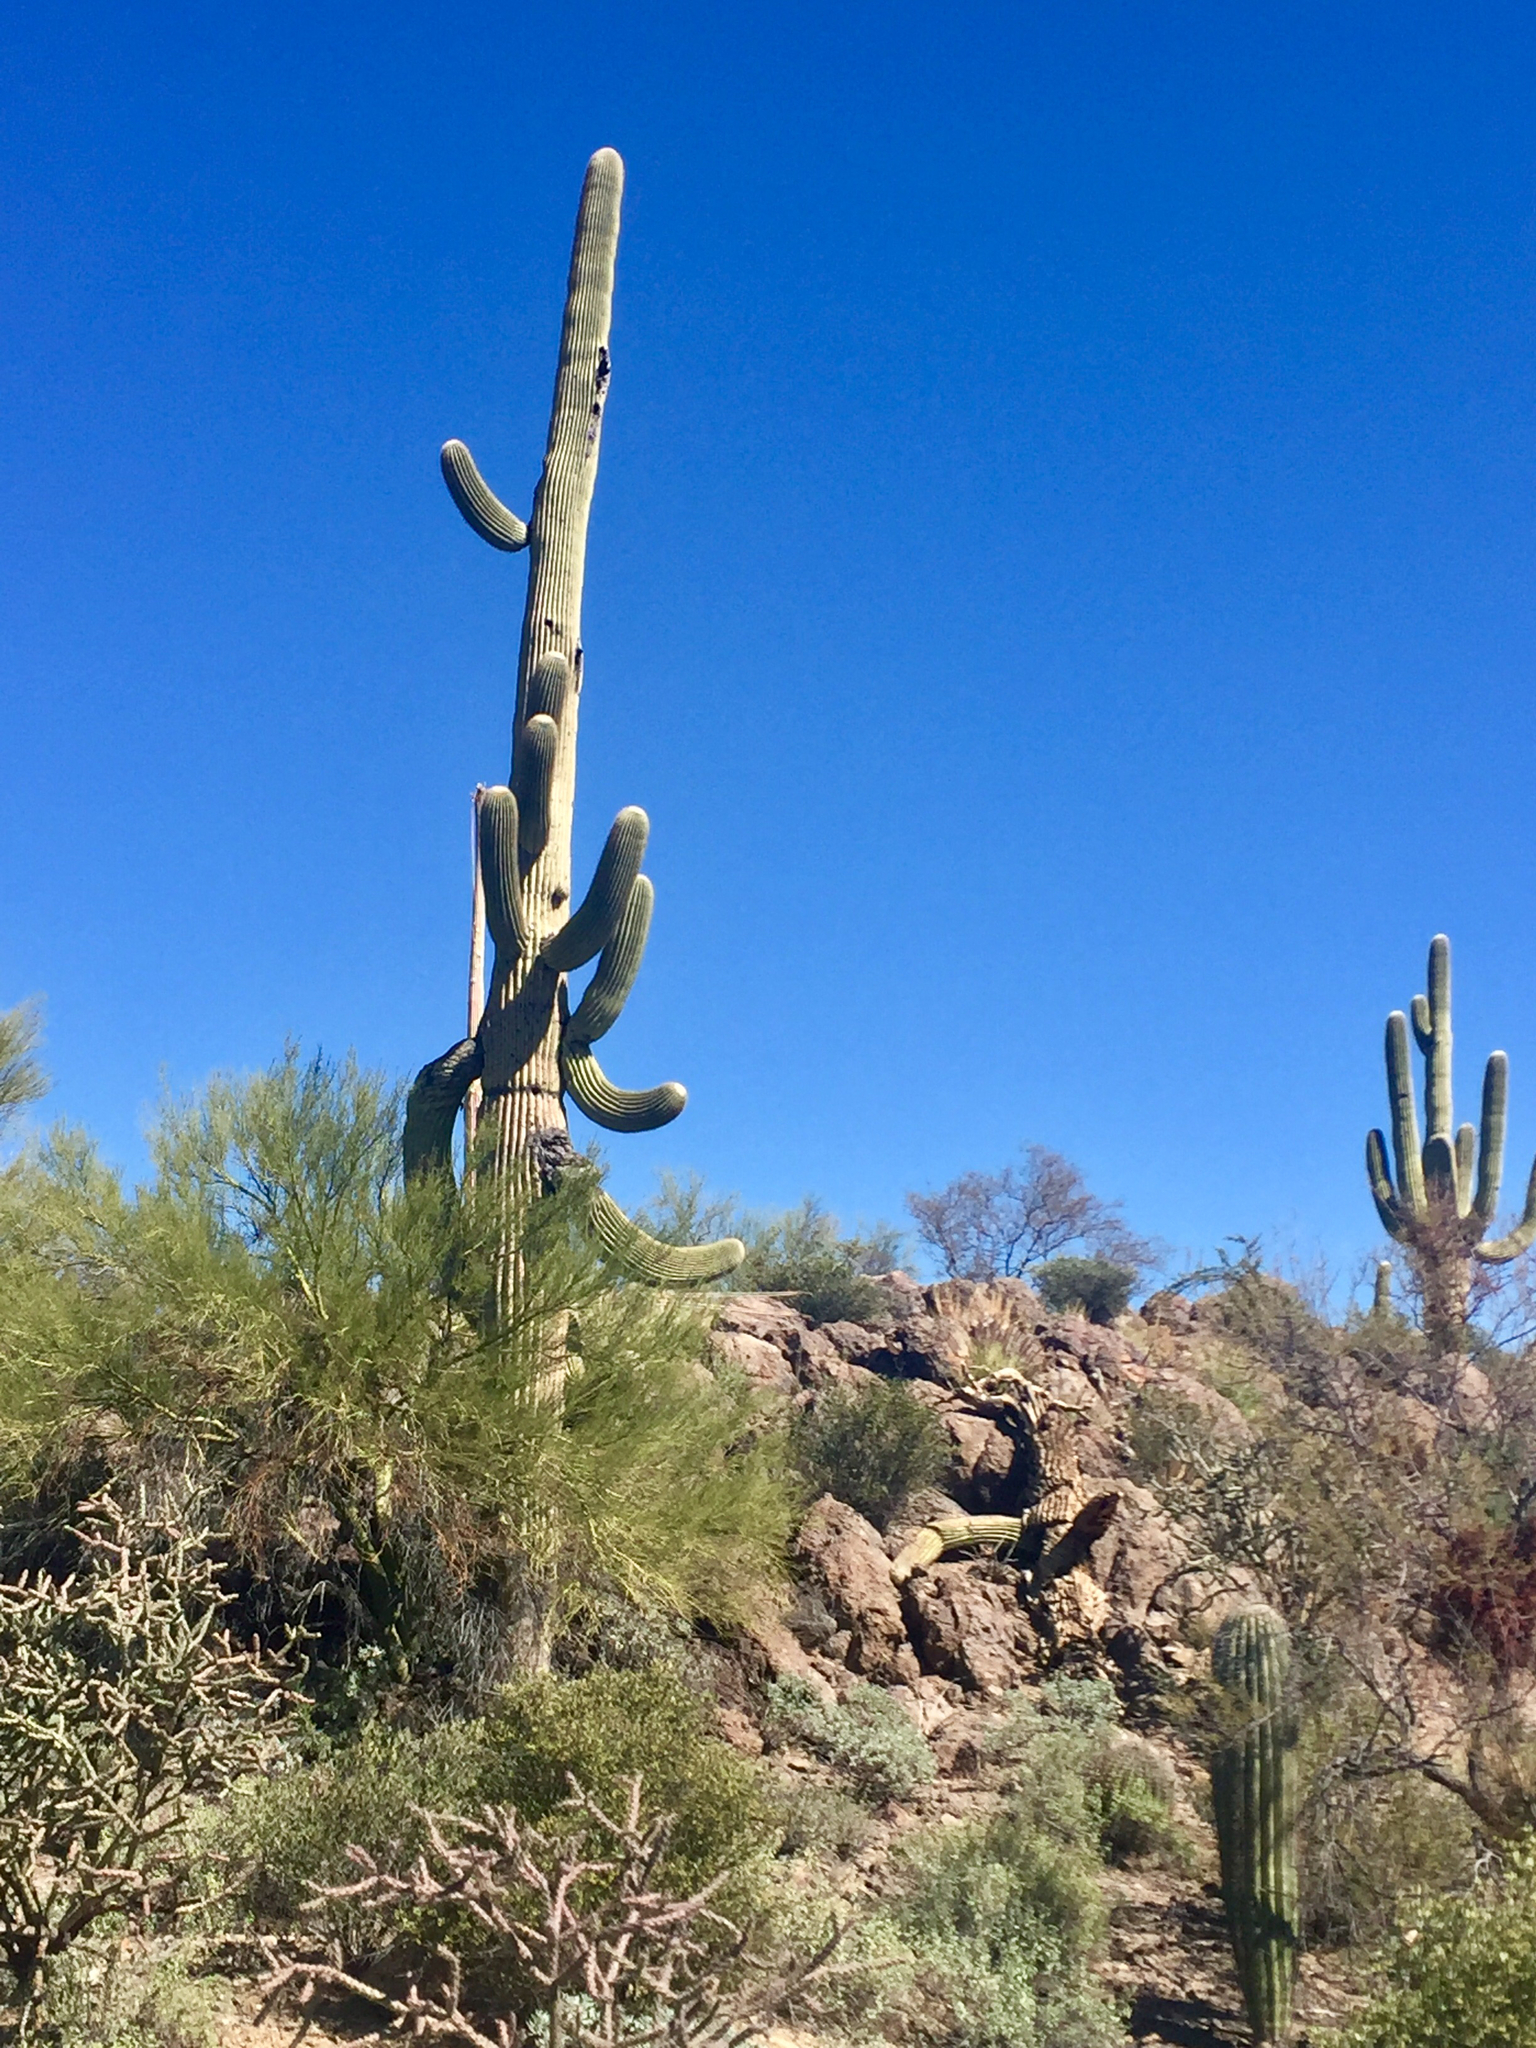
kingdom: Plantae
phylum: Tracheophyta
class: Magnoliopsida
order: Caryophyllales
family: Cactaceae
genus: Carnegiea
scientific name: Carnegiea gigantea
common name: Saguaro
